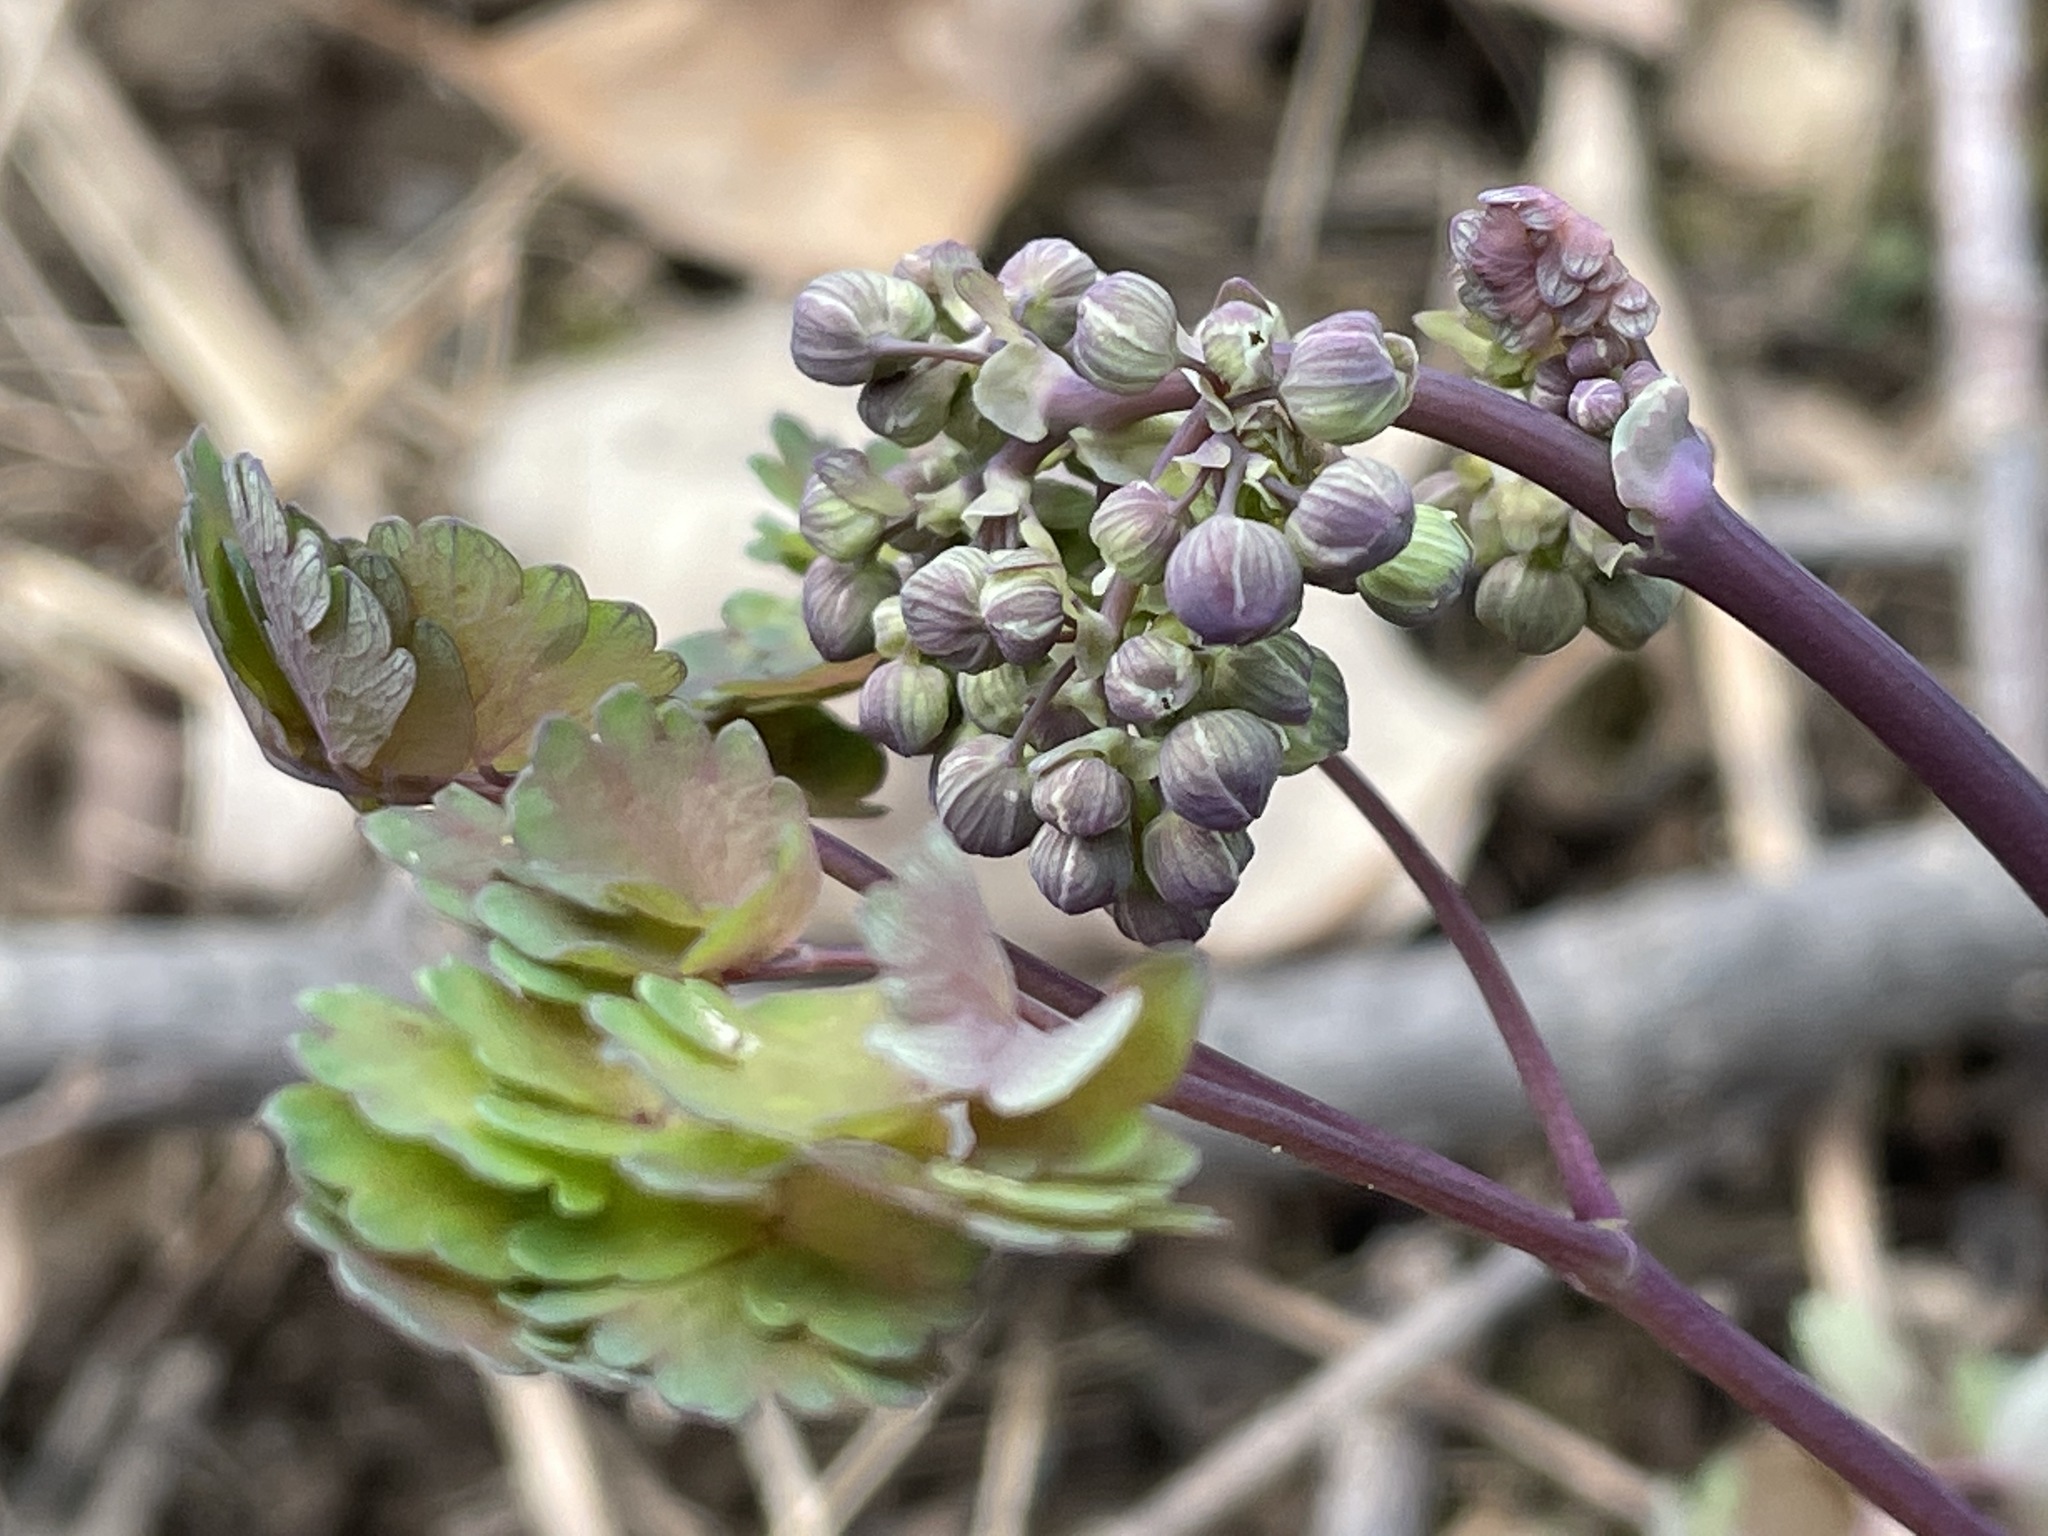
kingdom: Plantae
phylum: Tracheophyta
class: Magnoliopsida
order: Ranunculales
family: Ranunculaceae
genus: Thalictrum
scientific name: Thalictrum dioicum
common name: Early meadow-rue
